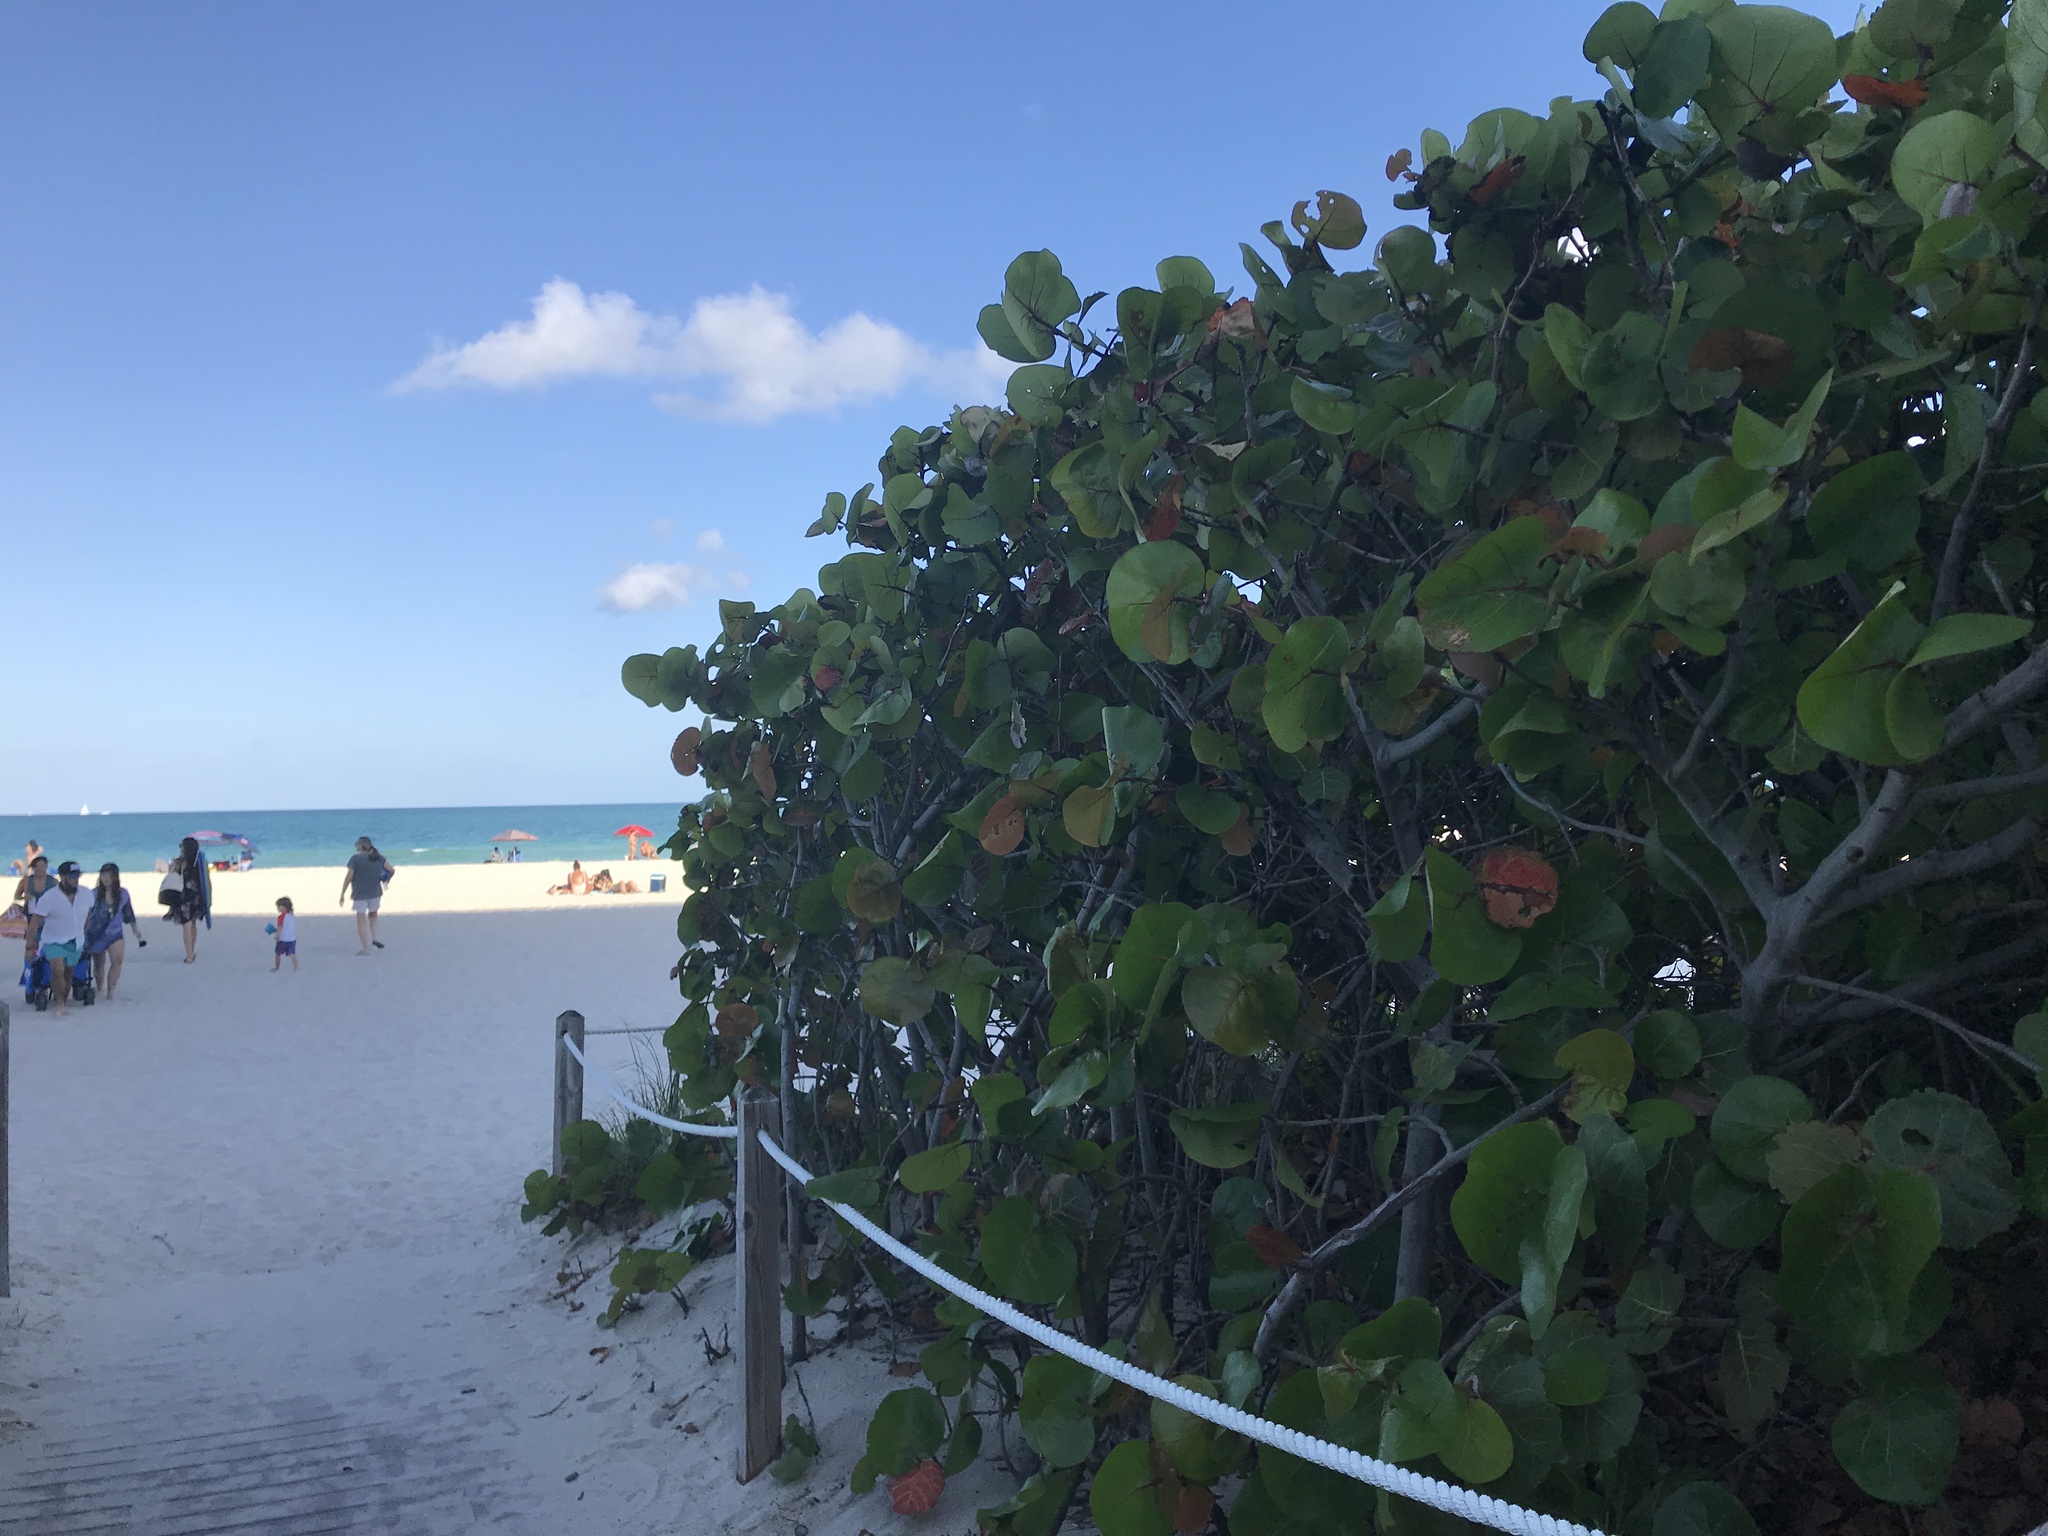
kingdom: Plantae
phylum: Tracheophyta
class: Magnoliopsida
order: Caryophyllales
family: Polygonaceae
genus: Coccoloba
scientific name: Coccoloba uvifera
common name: Seagrape
